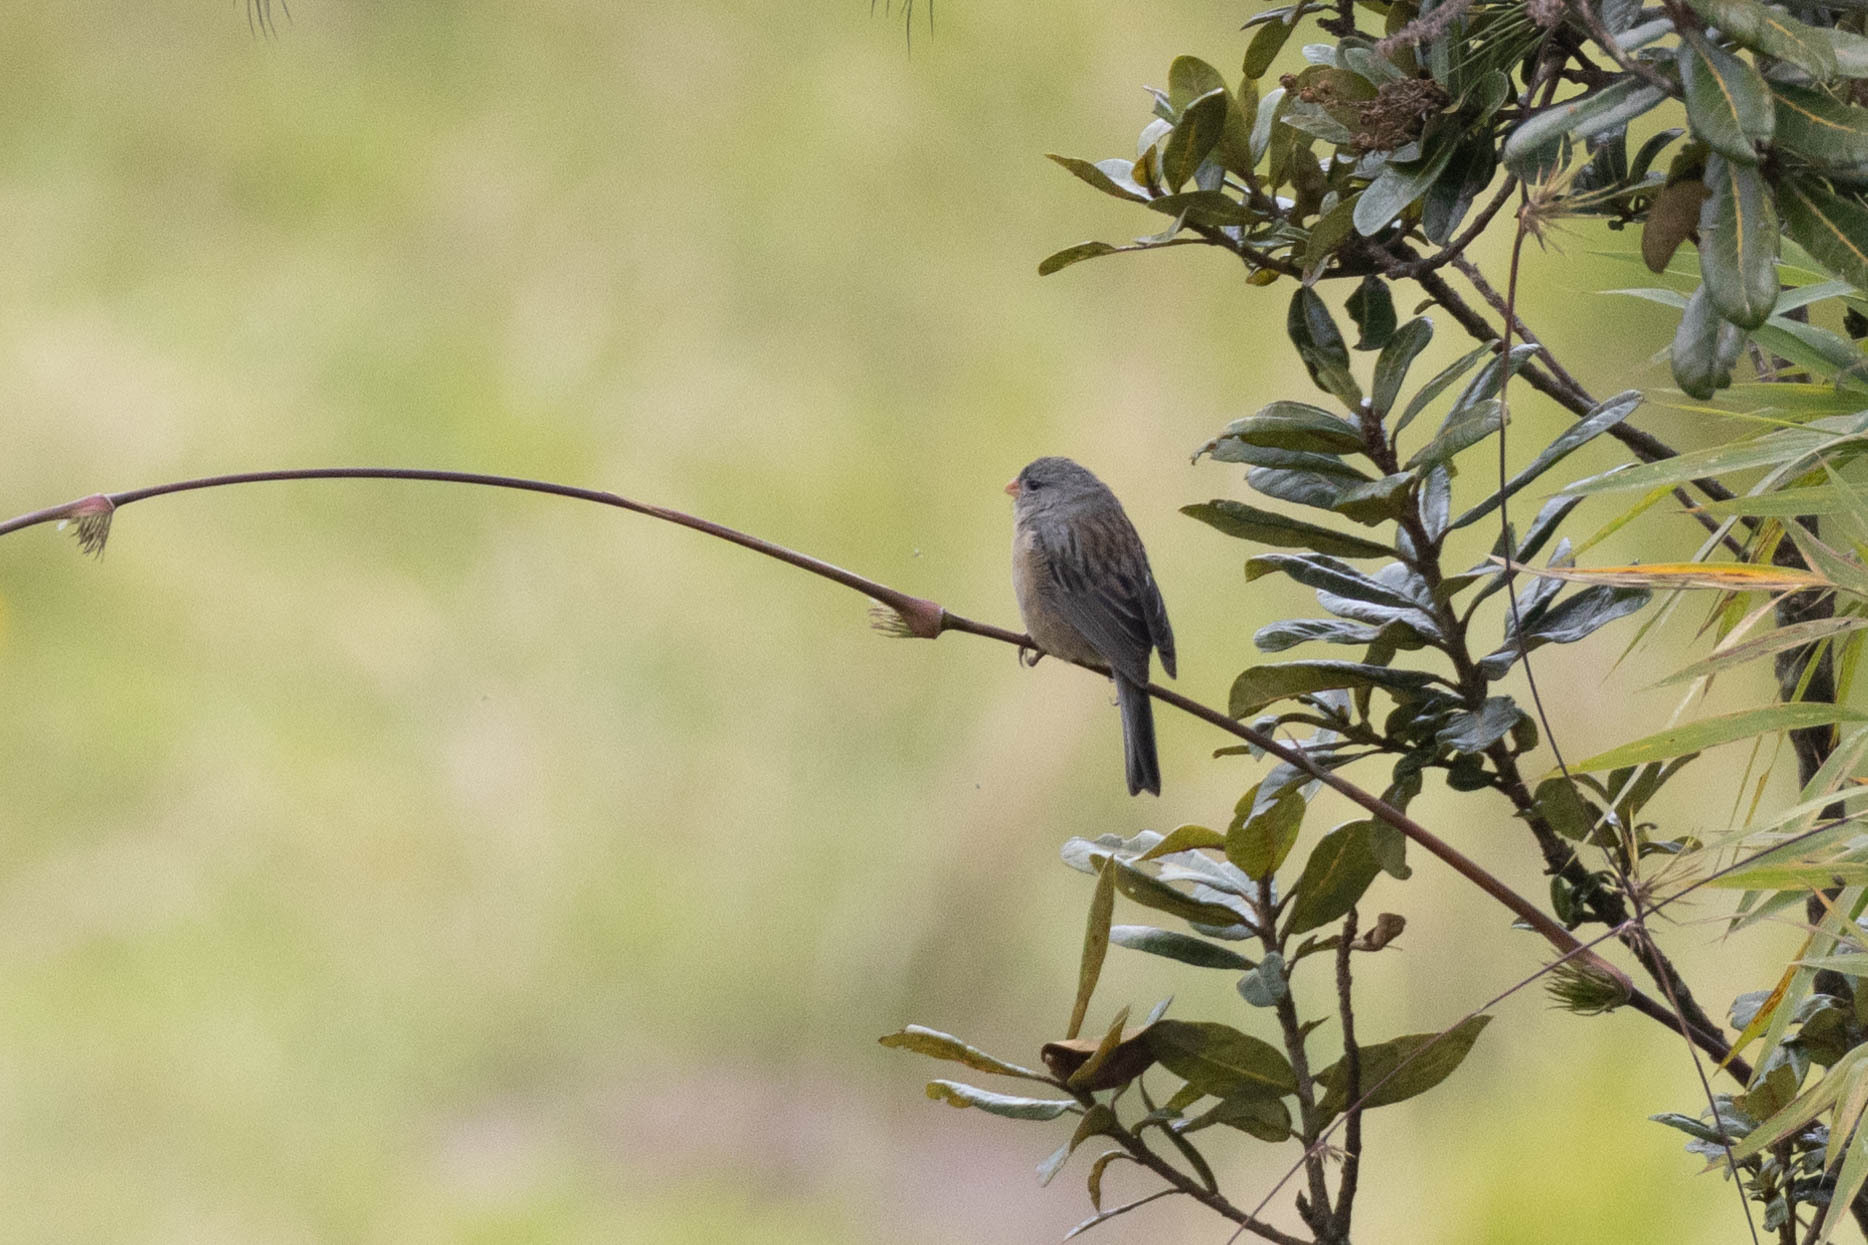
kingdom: Animalia
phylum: Chordata
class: Aves
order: Passeriformes
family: Thraupidae
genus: Catamenia
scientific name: Catamenia inornata
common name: Plain-colored seedeater
